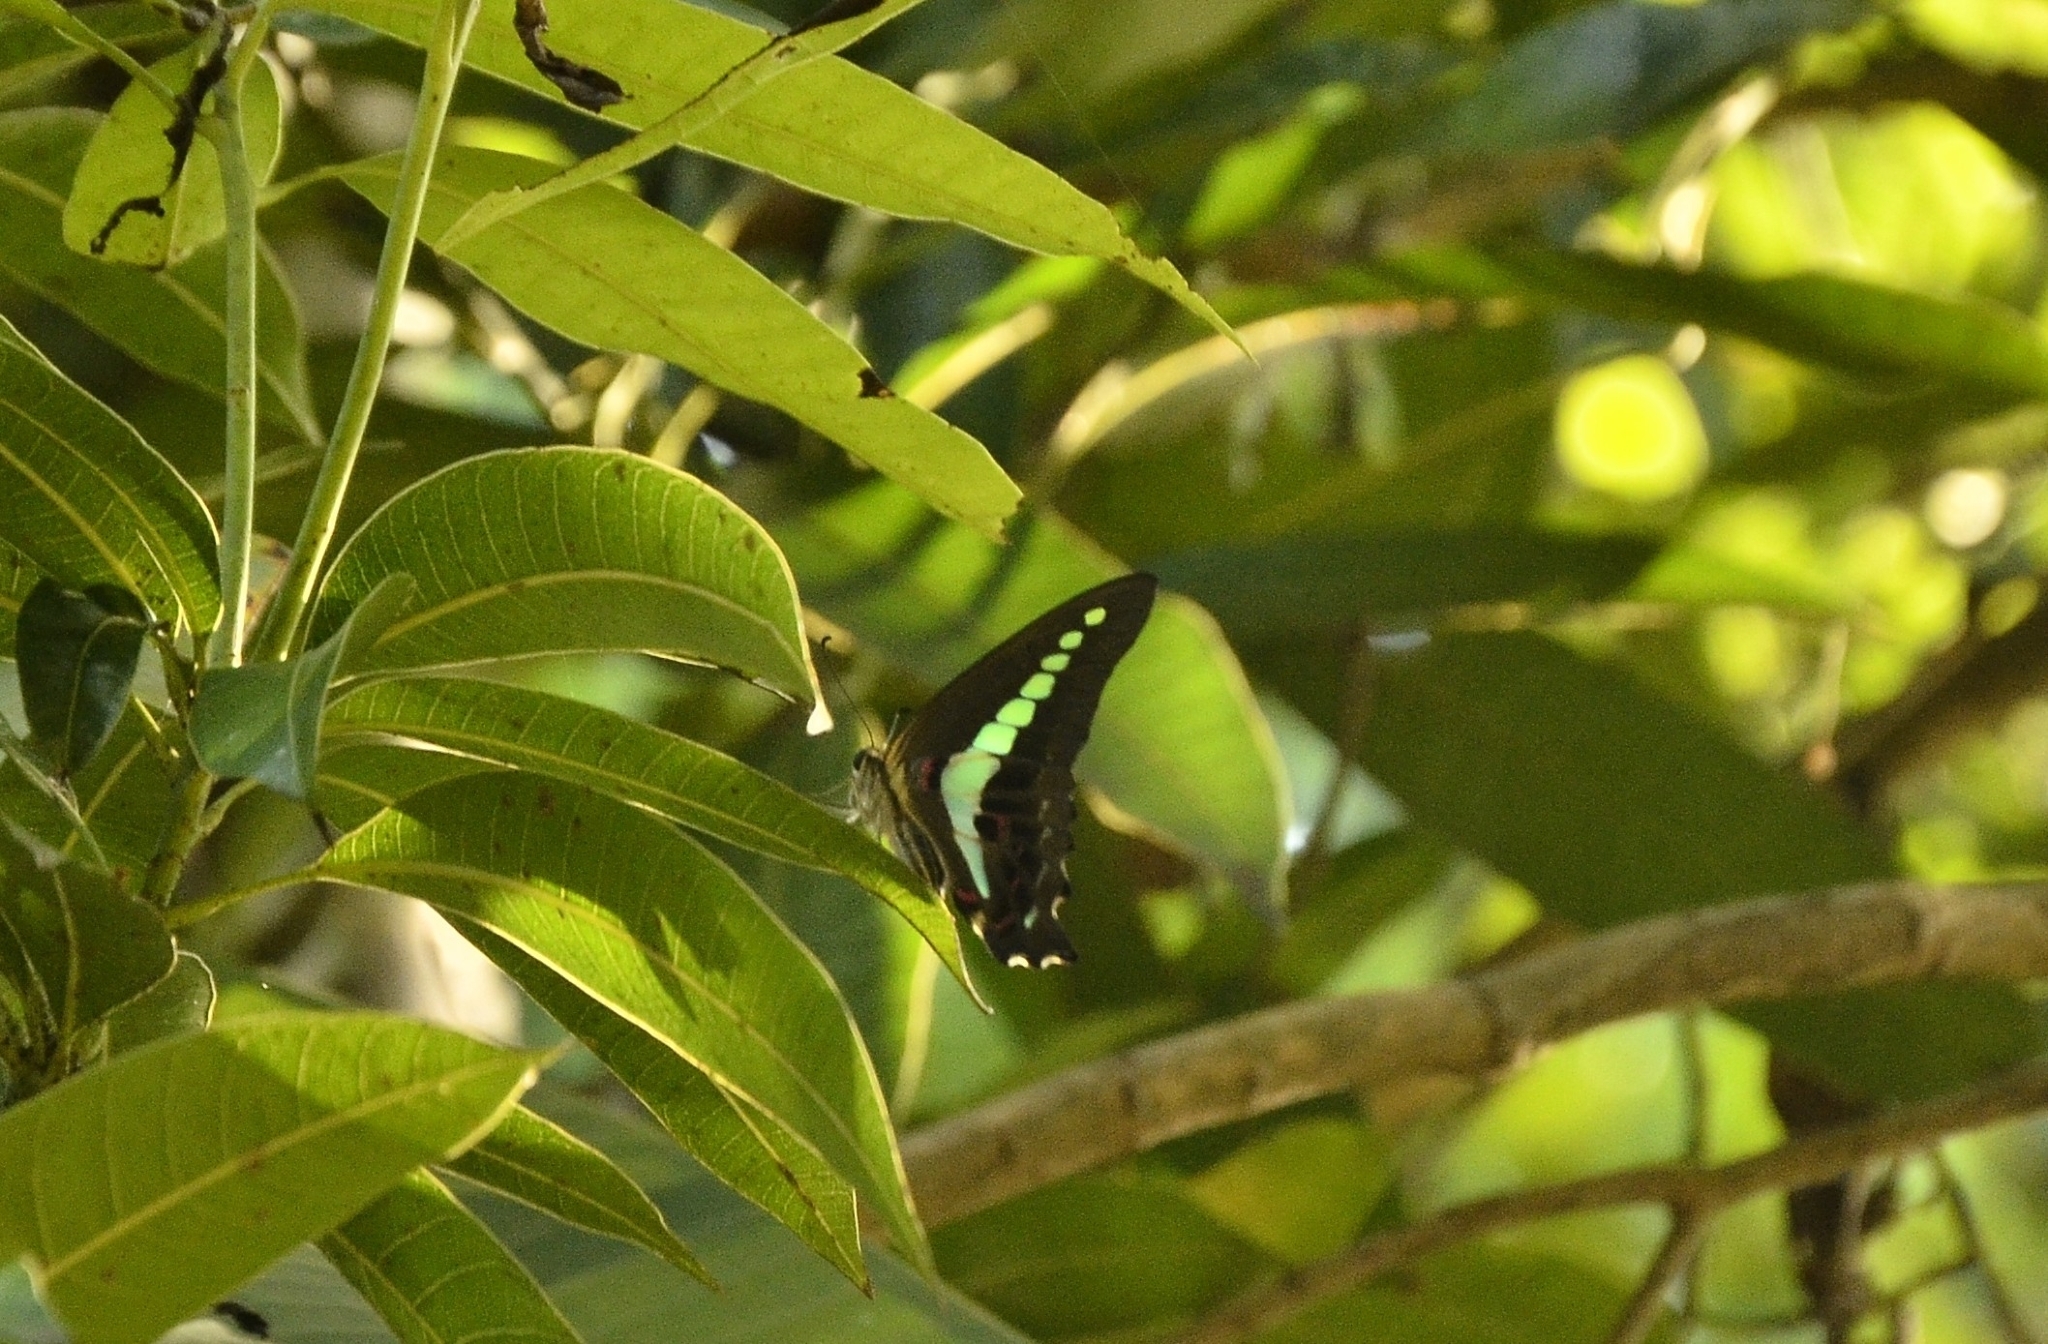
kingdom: Animalia
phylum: Arthropoda
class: Insecta
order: Lepidoptera
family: Papilionidae
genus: Graphium
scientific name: Graphium
